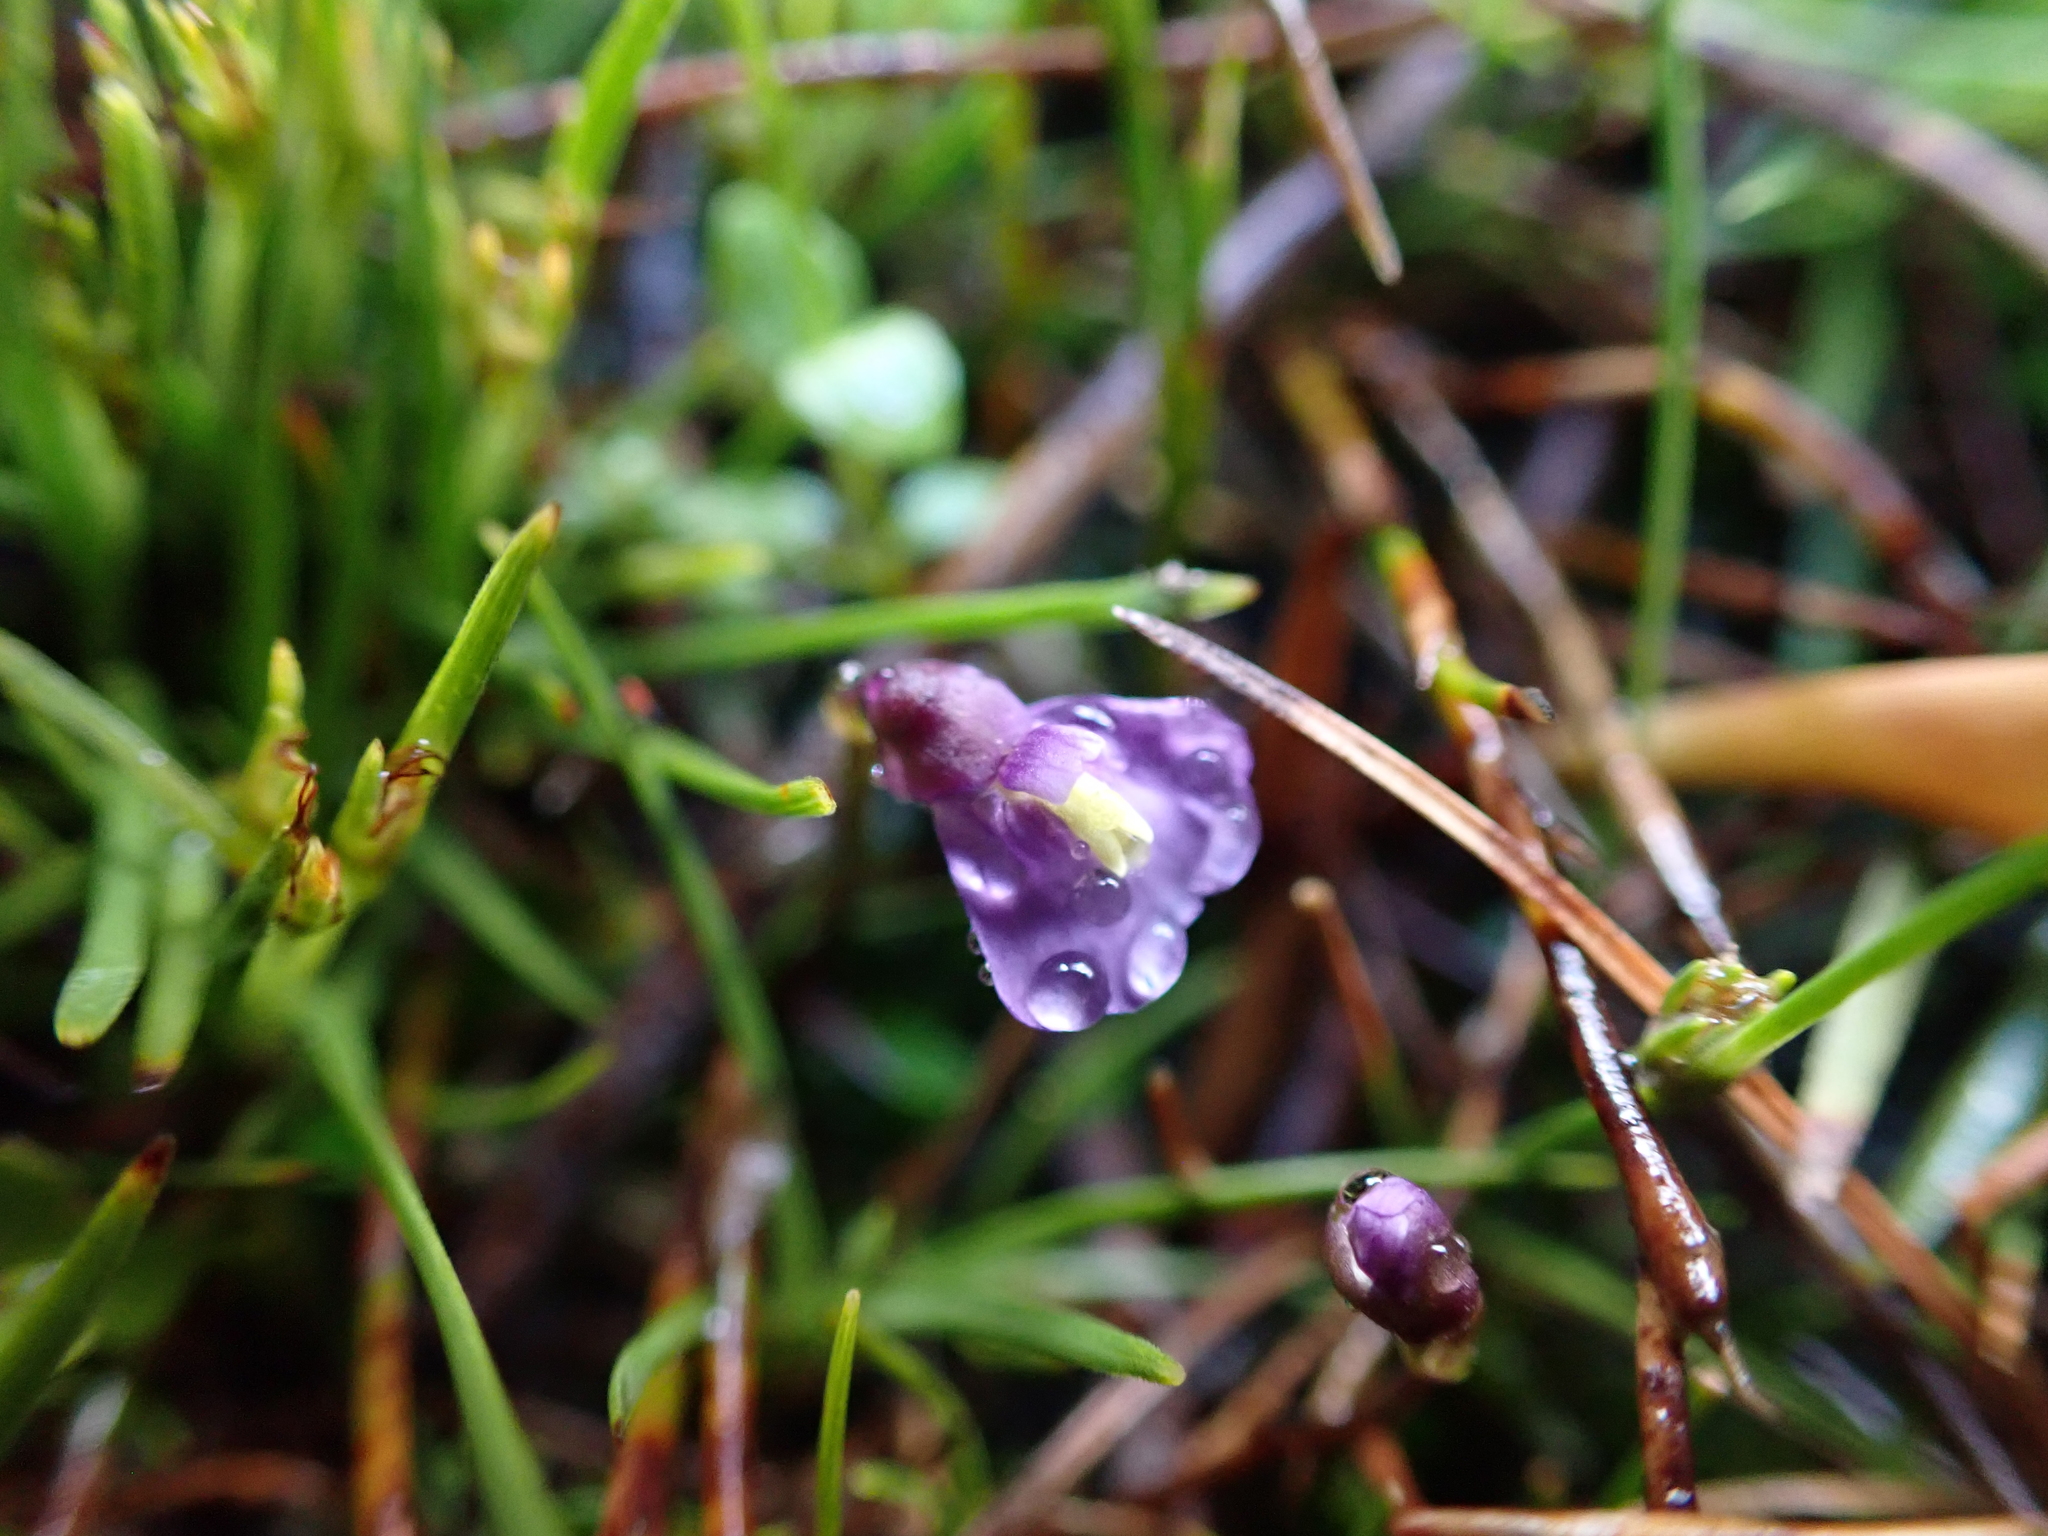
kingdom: Plantae
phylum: Tracheophyta
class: Magnoliopsida
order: Lamiales
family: Lentibulariaceae
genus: Utricularia
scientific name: Utricularia dichotoma
